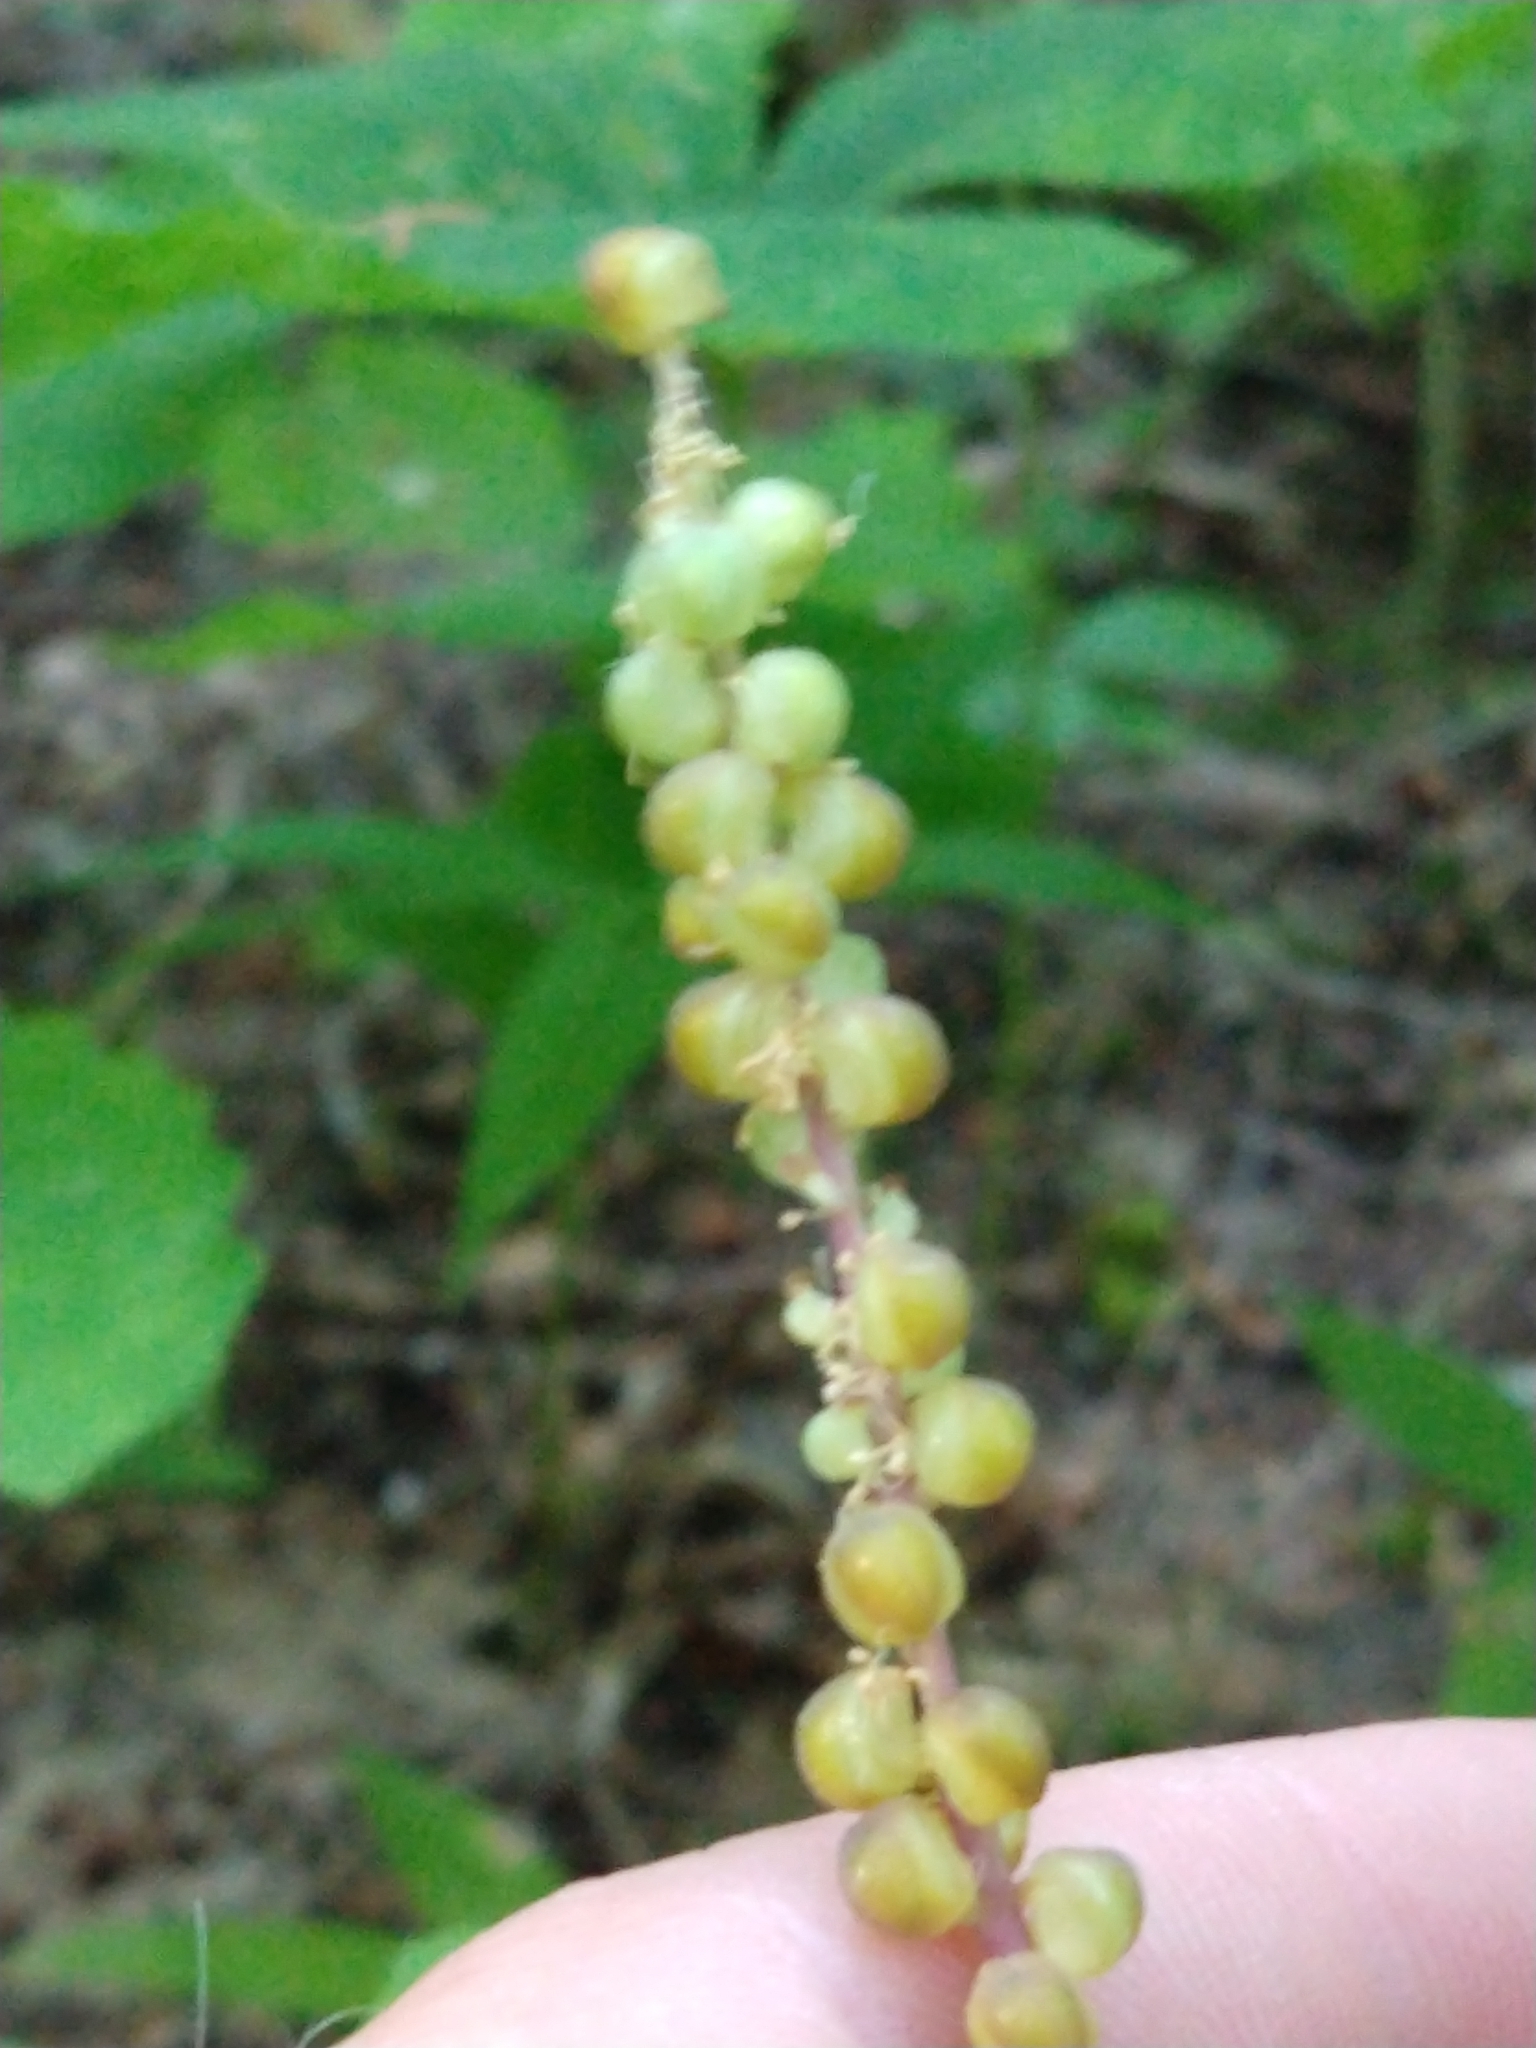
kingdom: Plantae
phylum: Tracheophyta
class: Magnoliopsida
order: Ranunculales
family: Berberidaceae
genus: Achlys
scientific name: Achlys triphylla
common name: Vanilla-leaf
